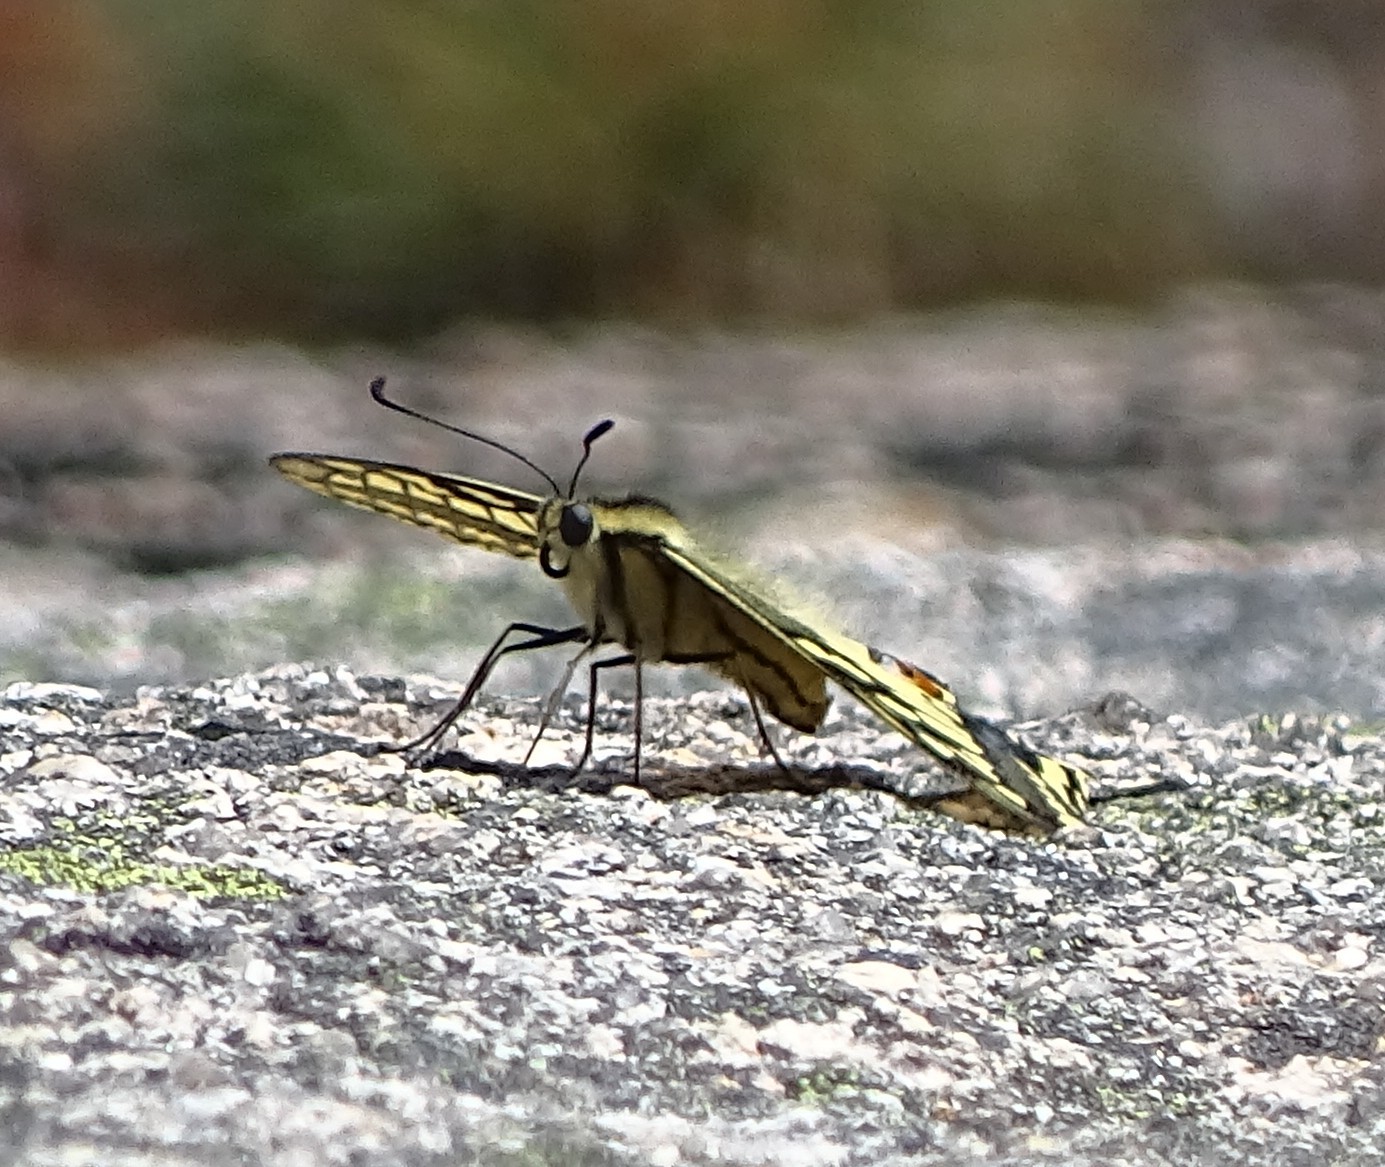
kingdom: Animalia
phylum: Arthropoda
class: Insecta
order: Lepidoptera
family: Papilionidae
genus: Papilio
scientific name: Papilio machaon
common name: Swallowtail
